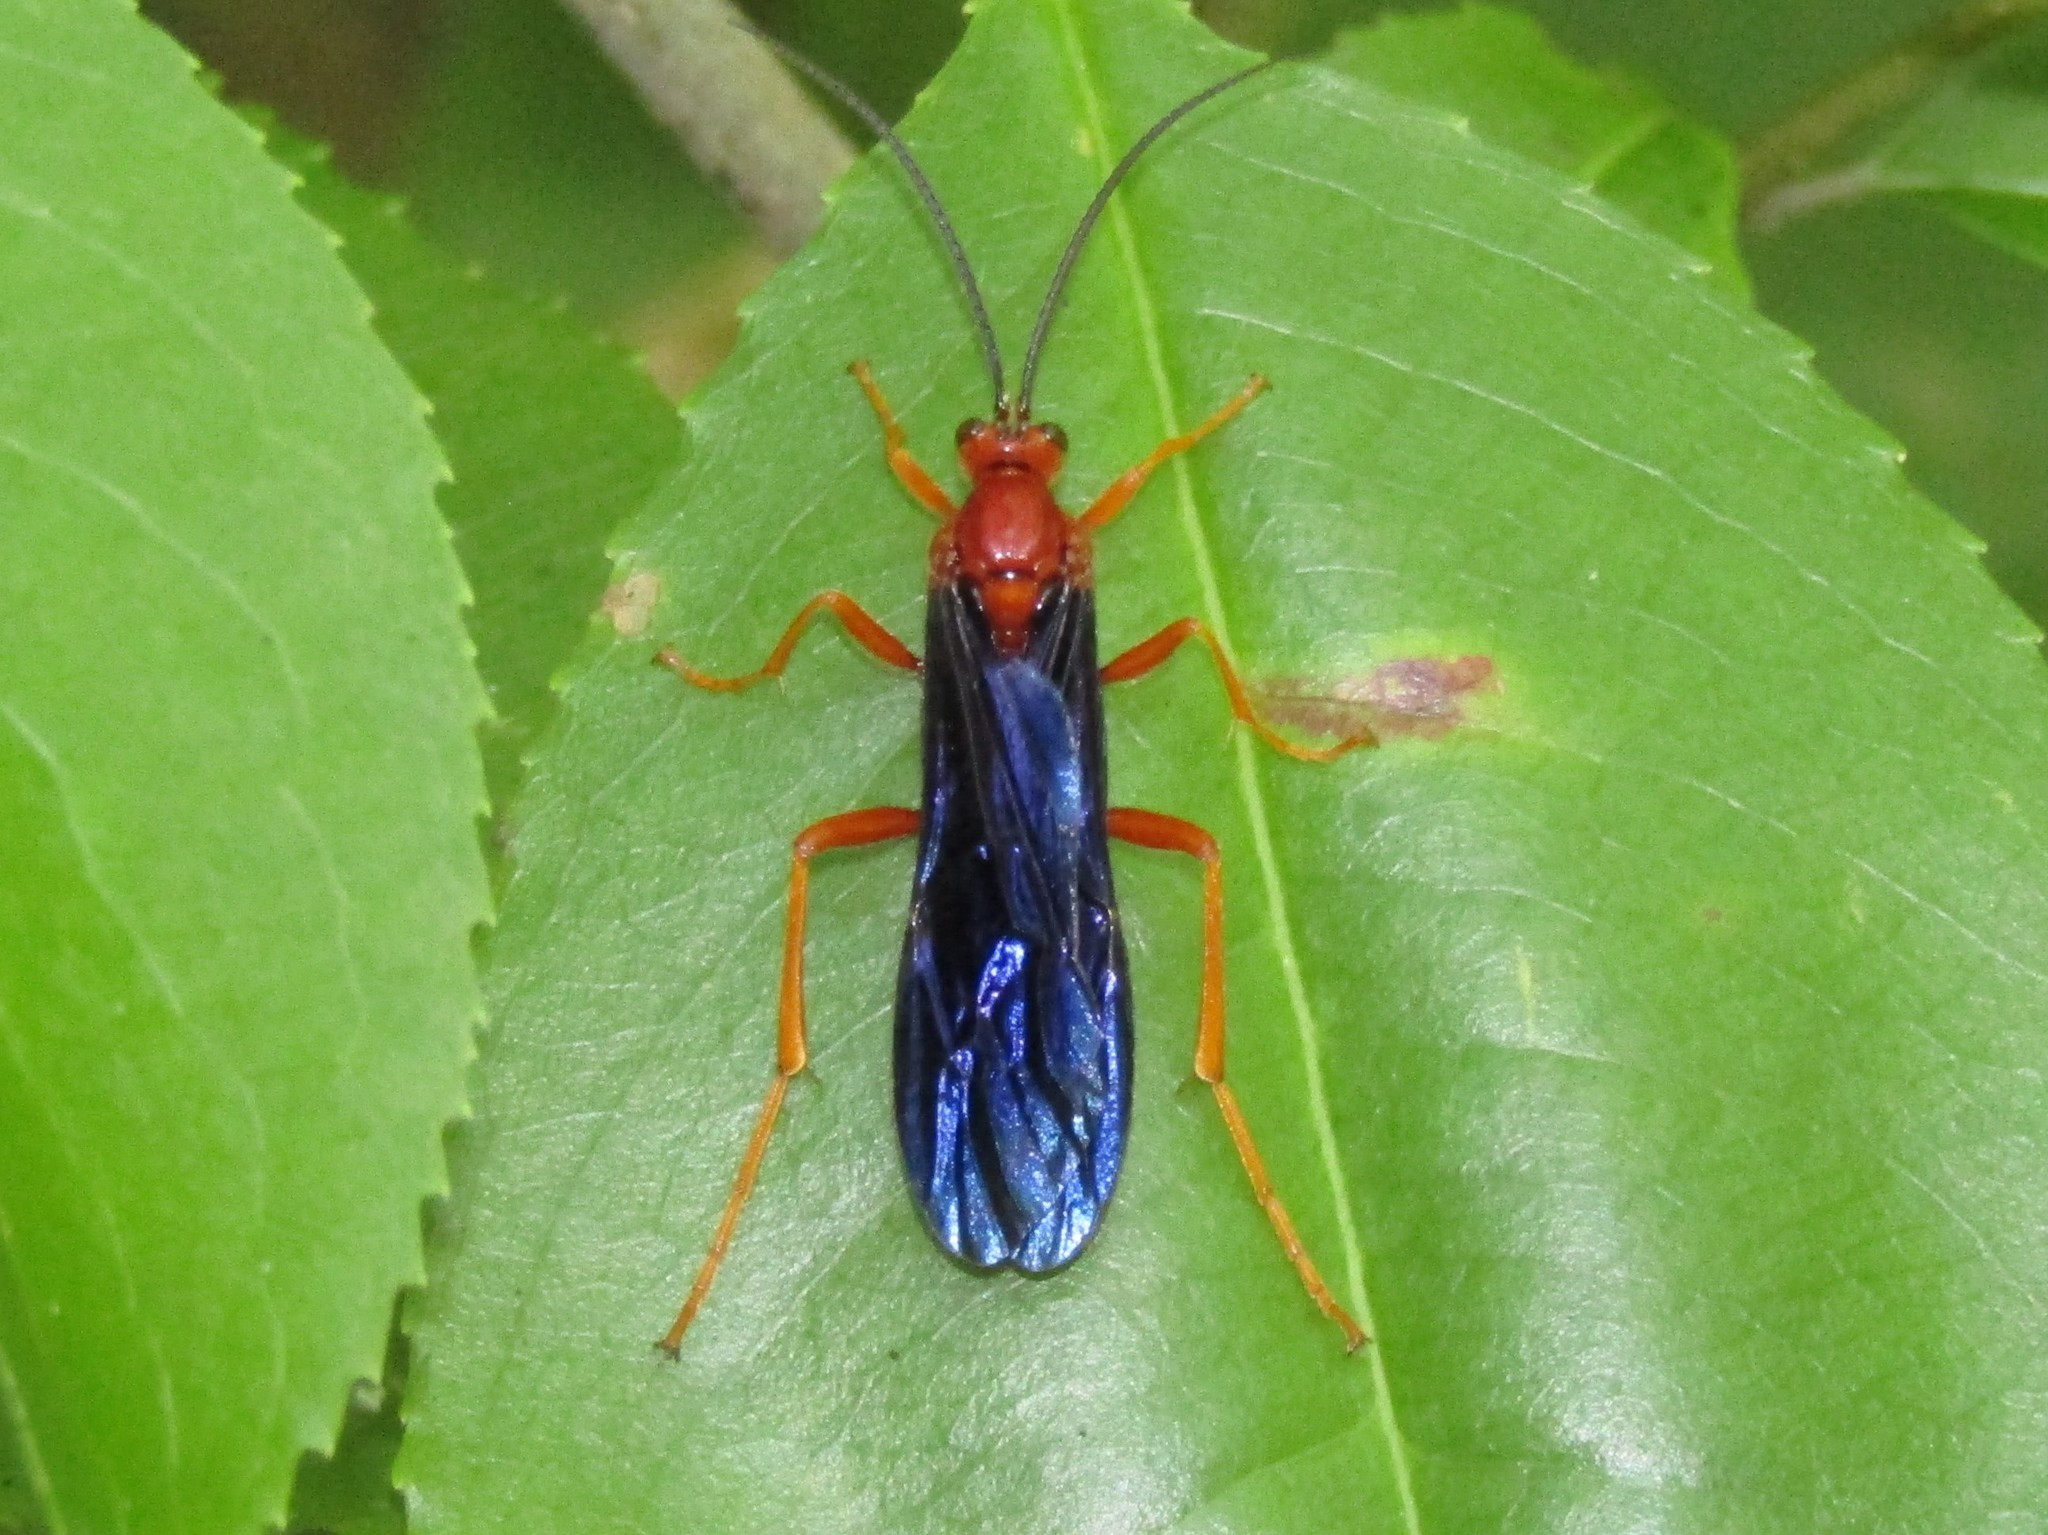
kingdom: Animalia
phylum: Arthropoda
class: Insecta
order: Hymenoptera
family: Ichneumonidae
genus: Trogus
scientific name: Trogus pennator
